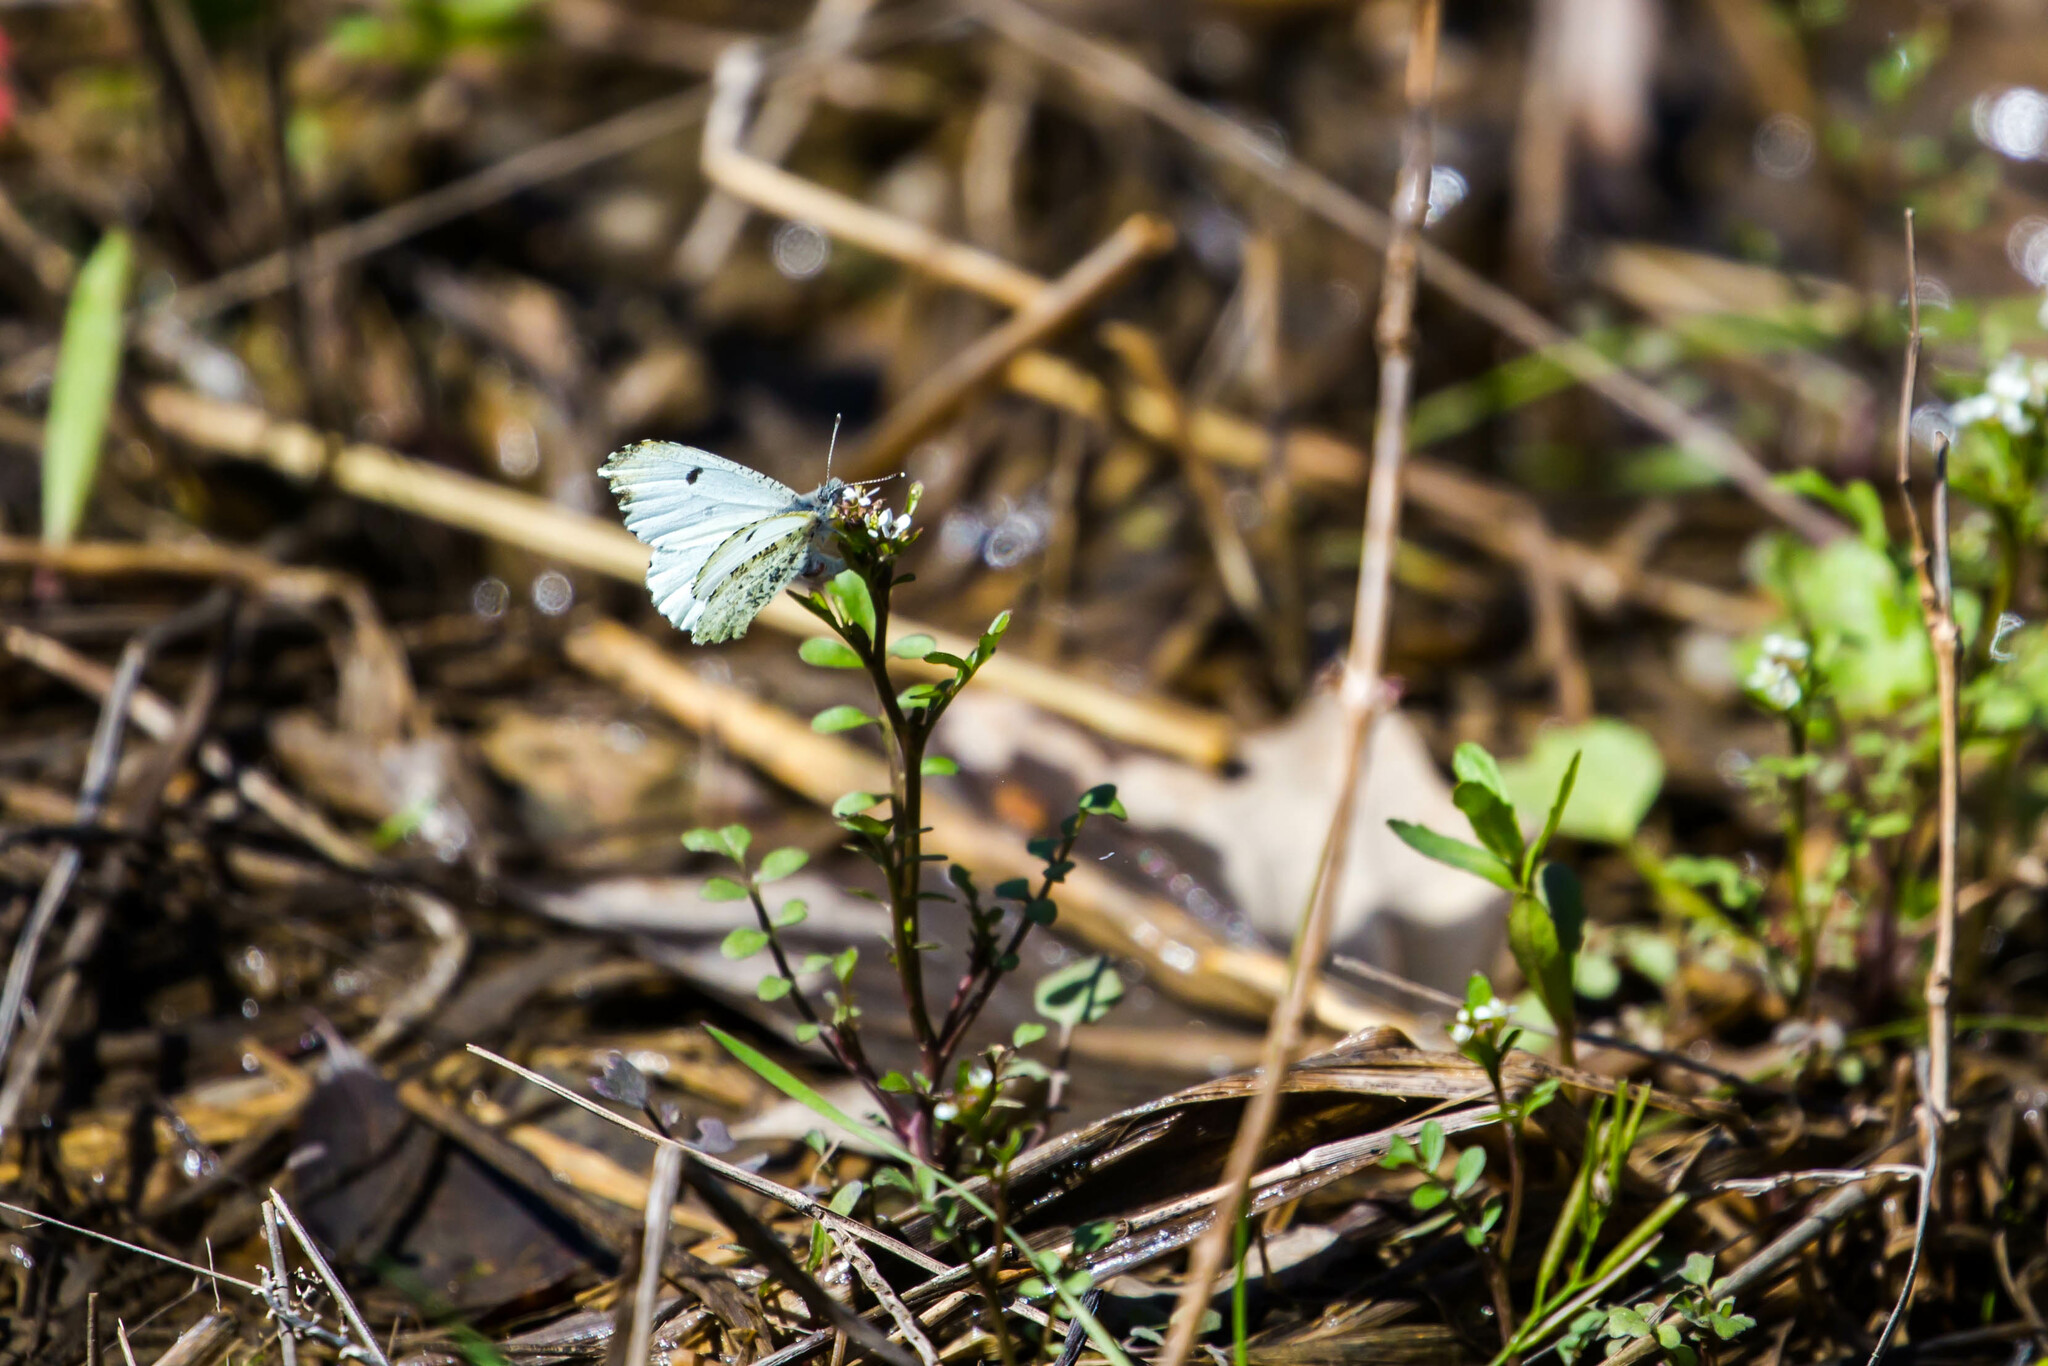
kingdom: Animalia
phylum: Arthropoda
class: Insecta
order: Lepidoptera
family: Pieridae
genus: Anthocharis
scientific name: Anthocharis midea
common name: Falcate orangetip
